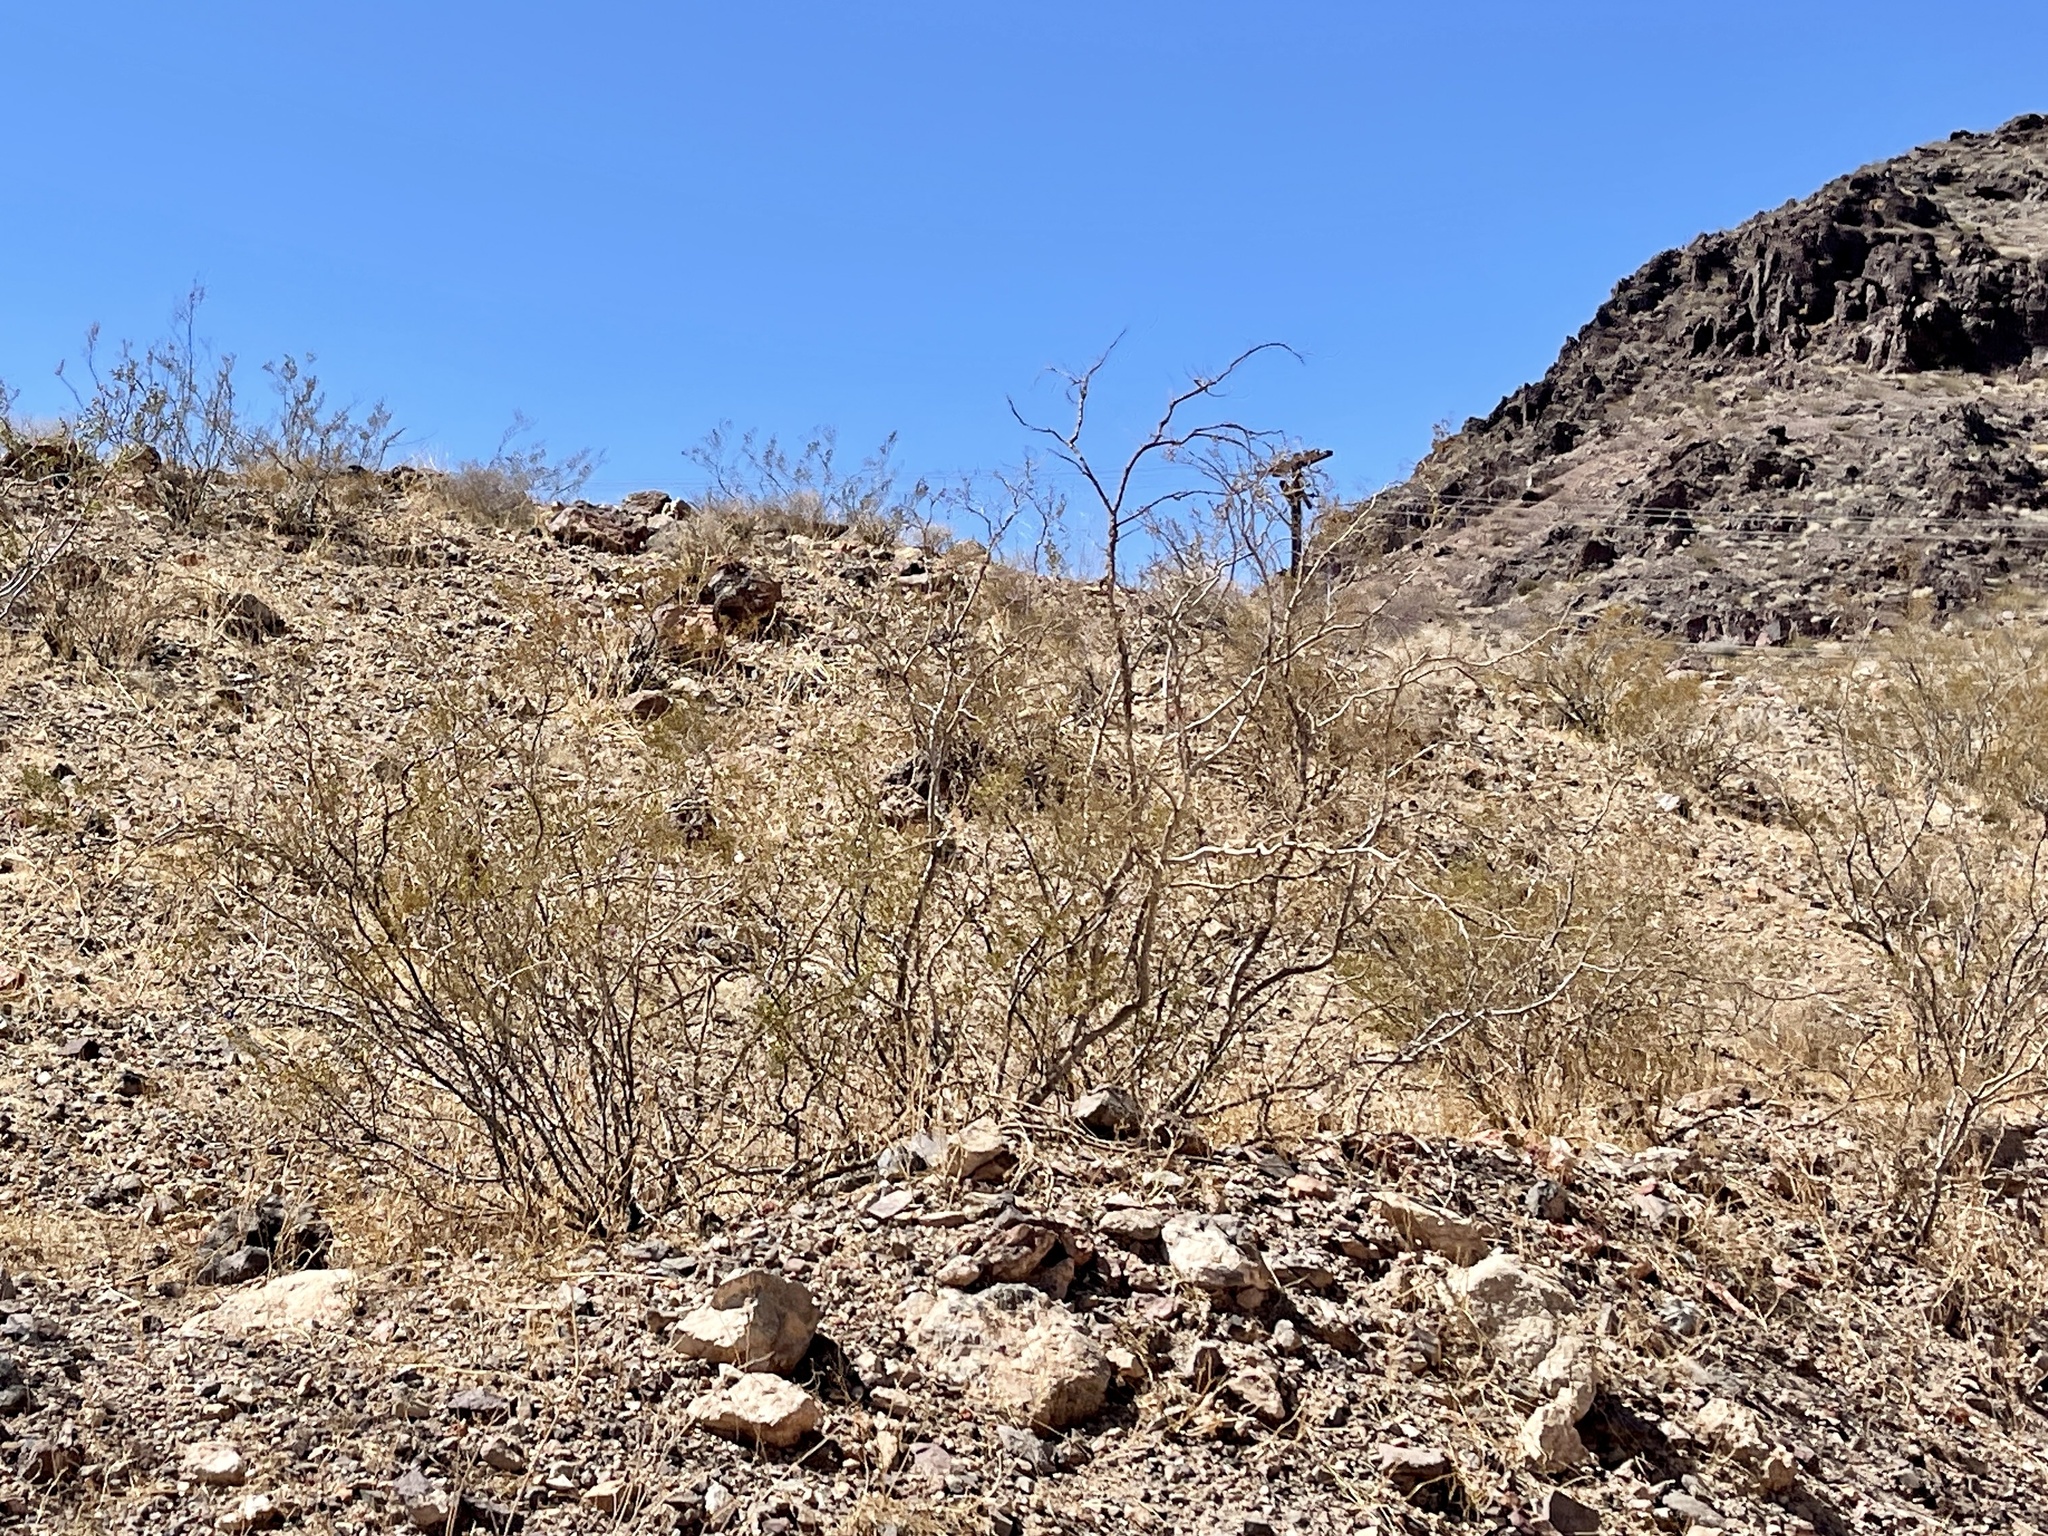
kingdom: Plantae
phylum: Tracheophyta
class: Magnoliopsida
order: Zygophyllales
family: Zygophyllaceae
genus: Larrea
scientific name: Larrea tridentata
